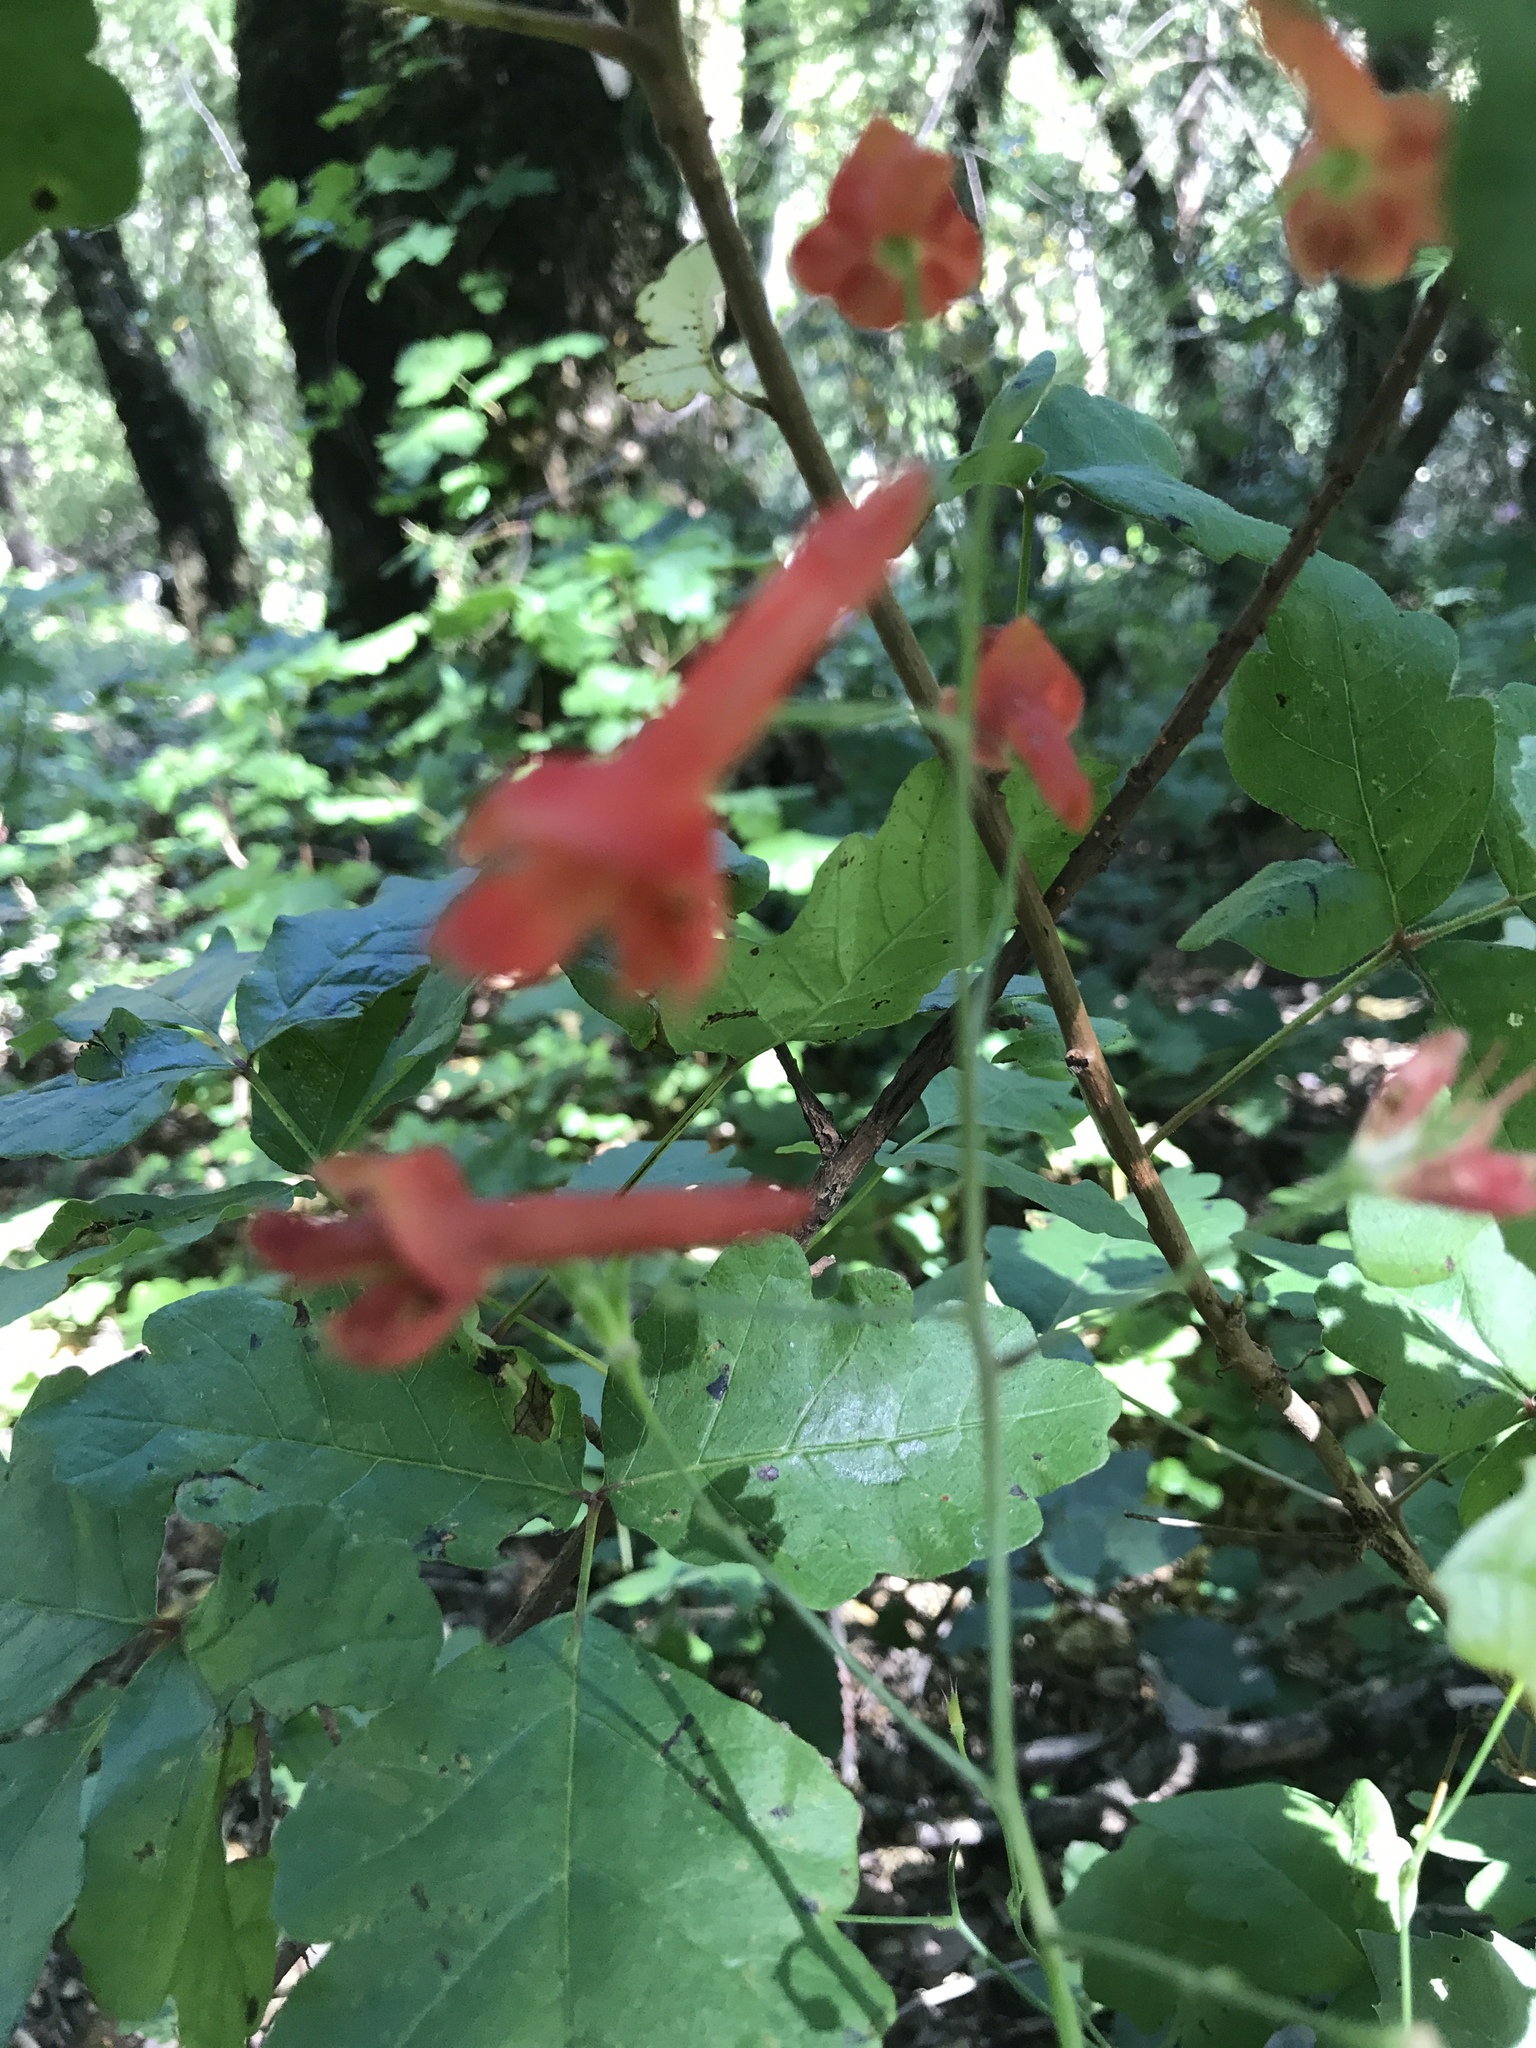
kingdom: Plantae
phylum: Tracheophyta
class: Magnoliopsida
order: Ranunculales
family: Ranunculaceae
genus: Delphinium
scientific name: Delphinium nudicaule
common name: Red larkspur
